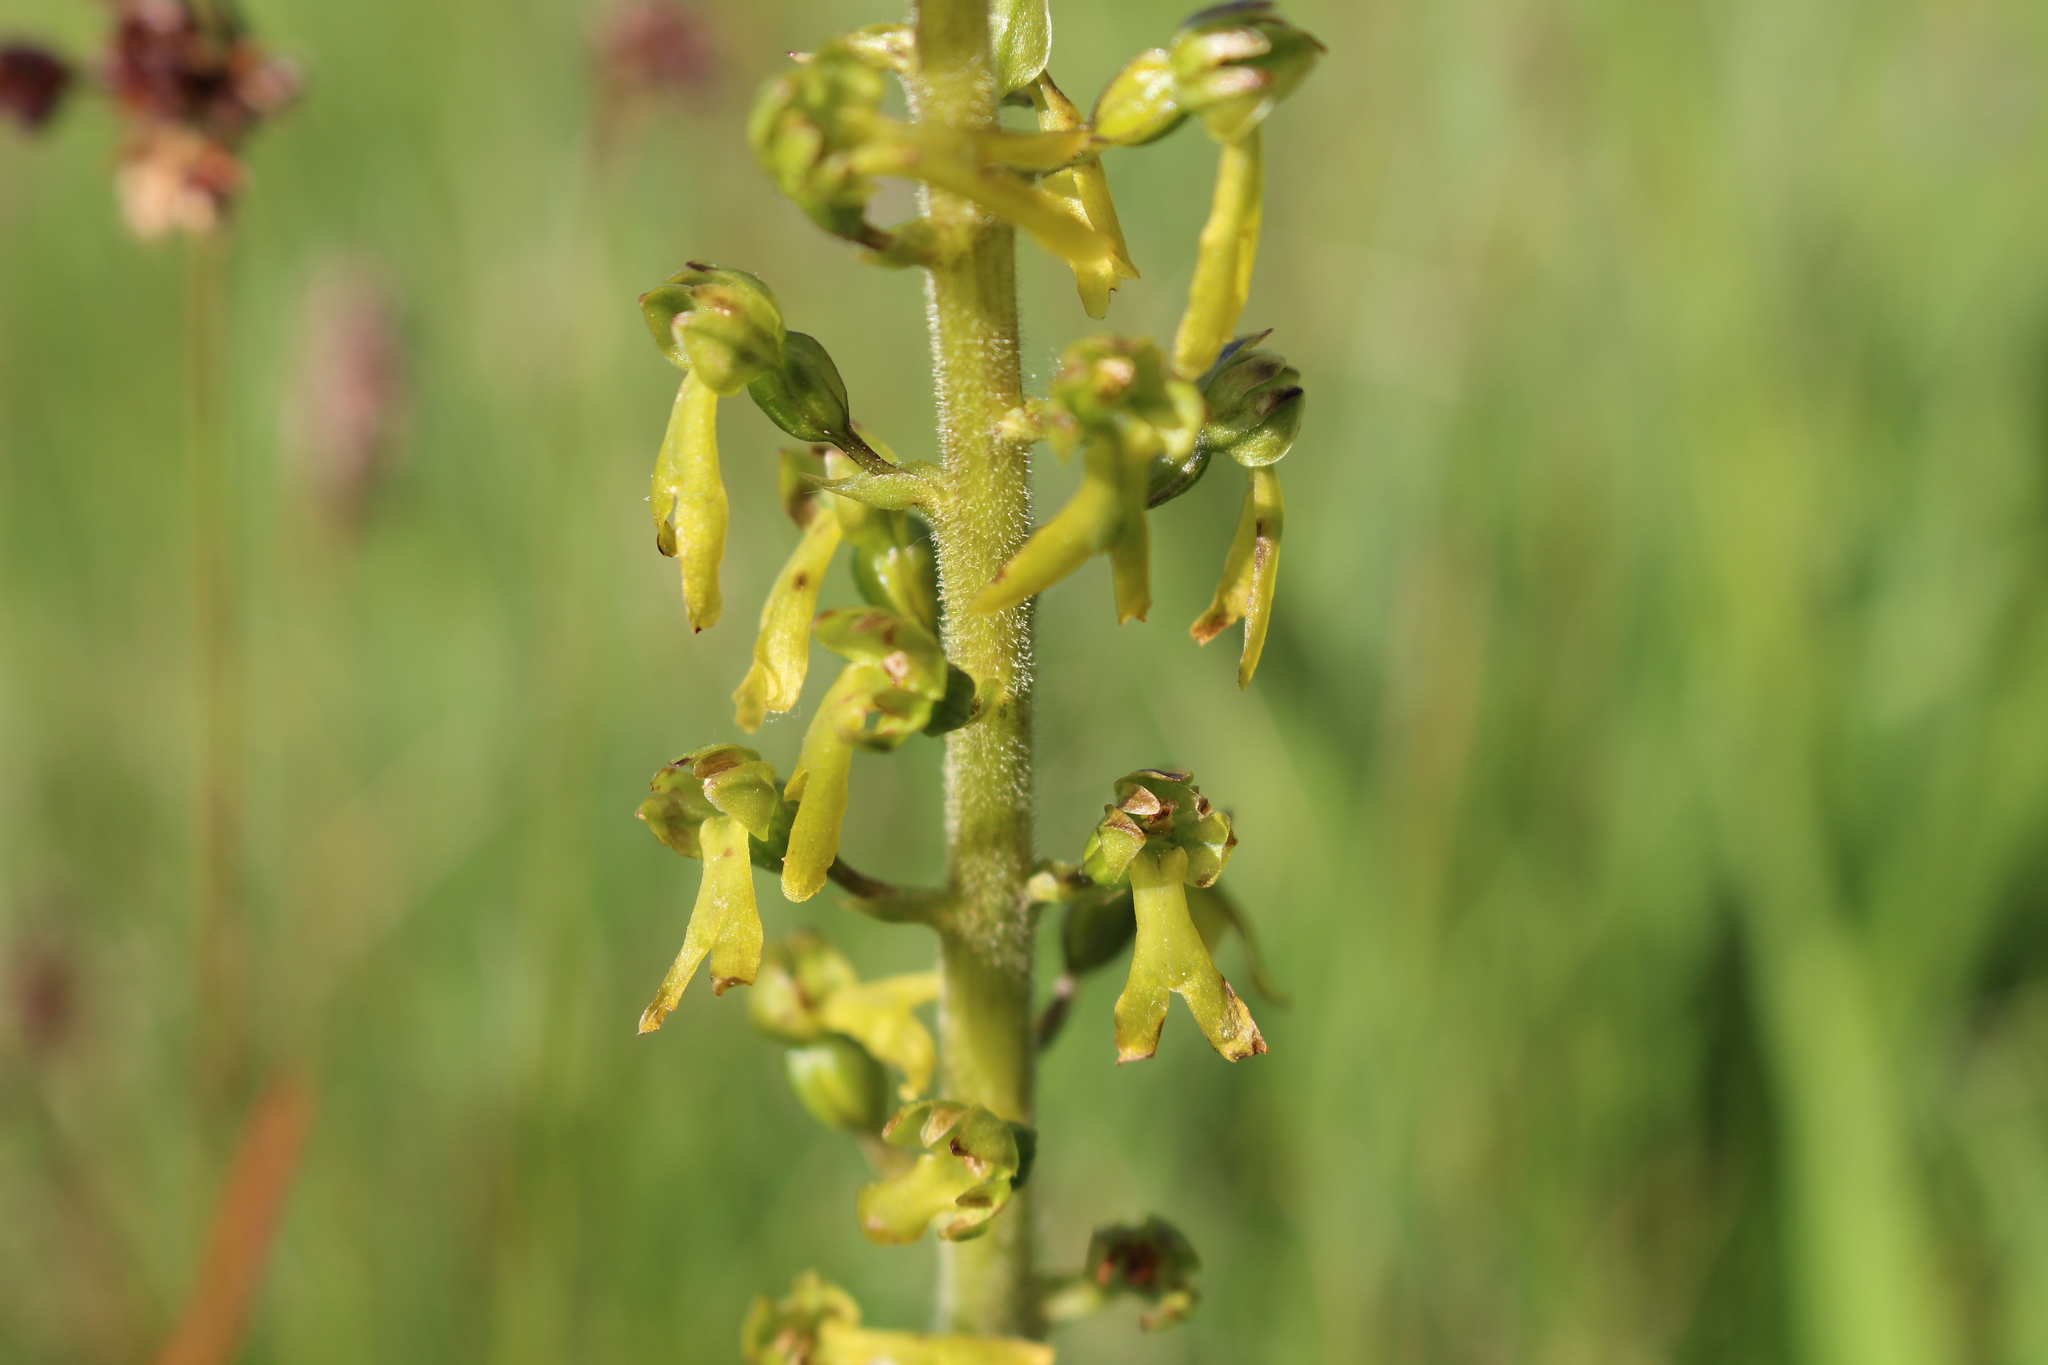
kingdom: Plantae
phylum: Tracheophyta
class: Liliopsida
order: Asparagales
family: Orchidaceae
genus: Neottia
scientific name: Neottia ovata
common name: Common twayblade
